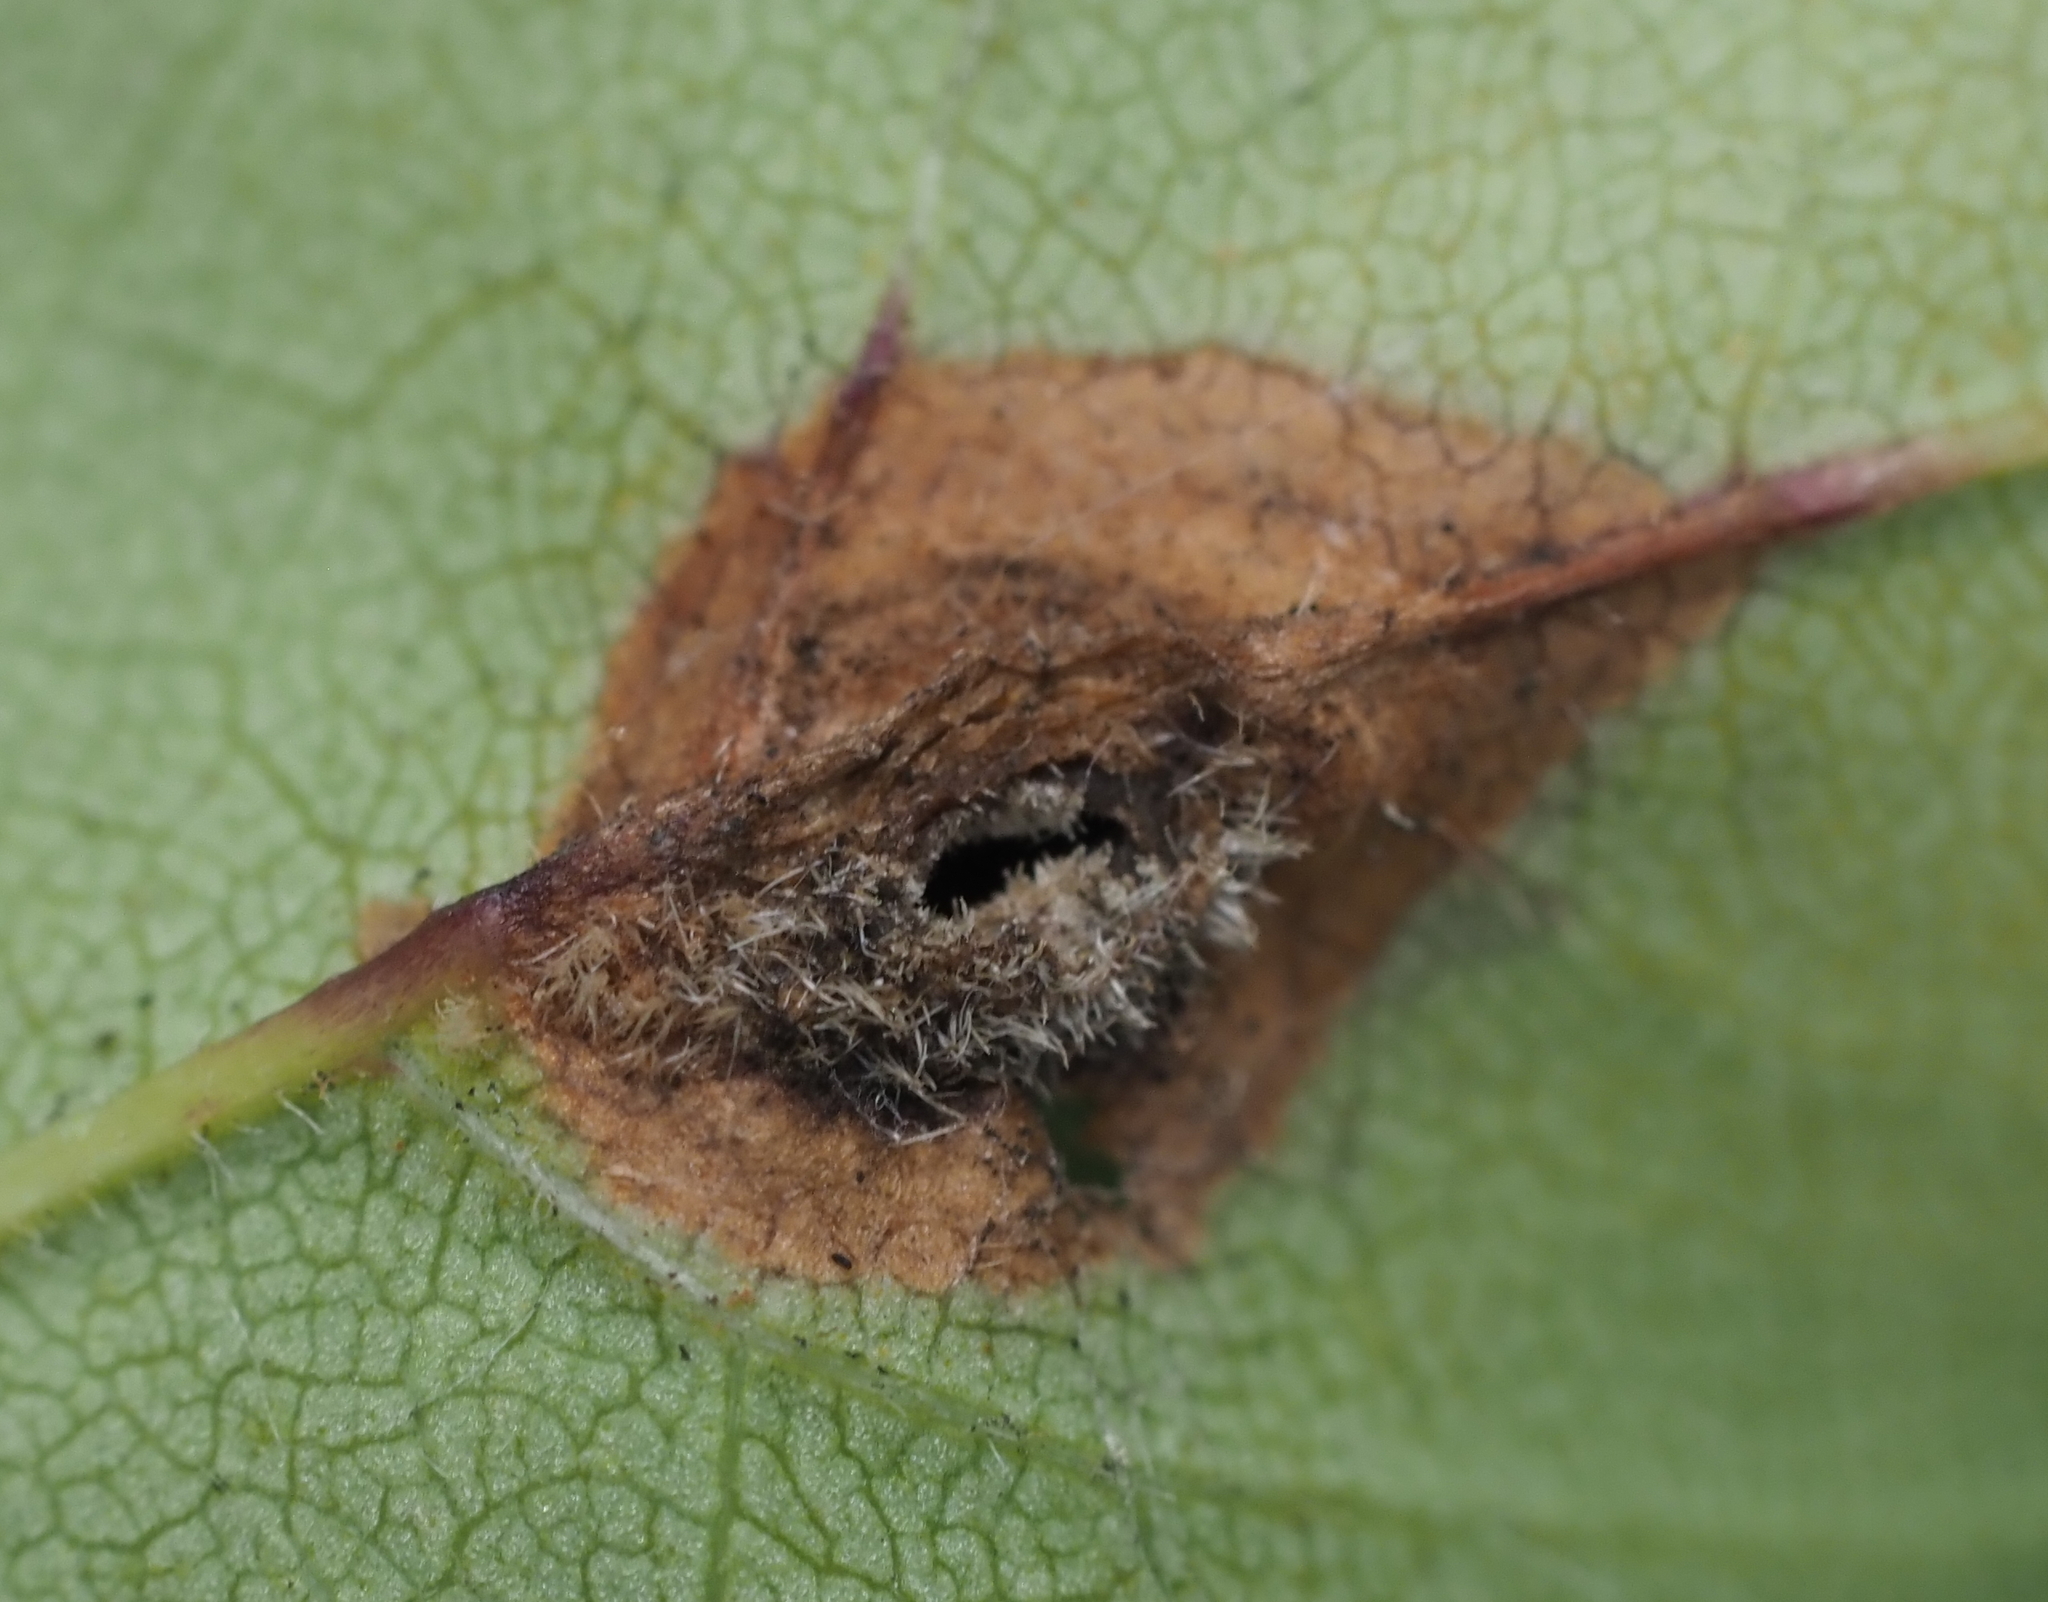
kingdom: Animalia
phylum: Arthropoda
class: Insecta
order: Diptera
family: Cecidomyiidae
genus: Dasineura
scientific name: Dasineura pellex
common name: Ash bullet gall midge
